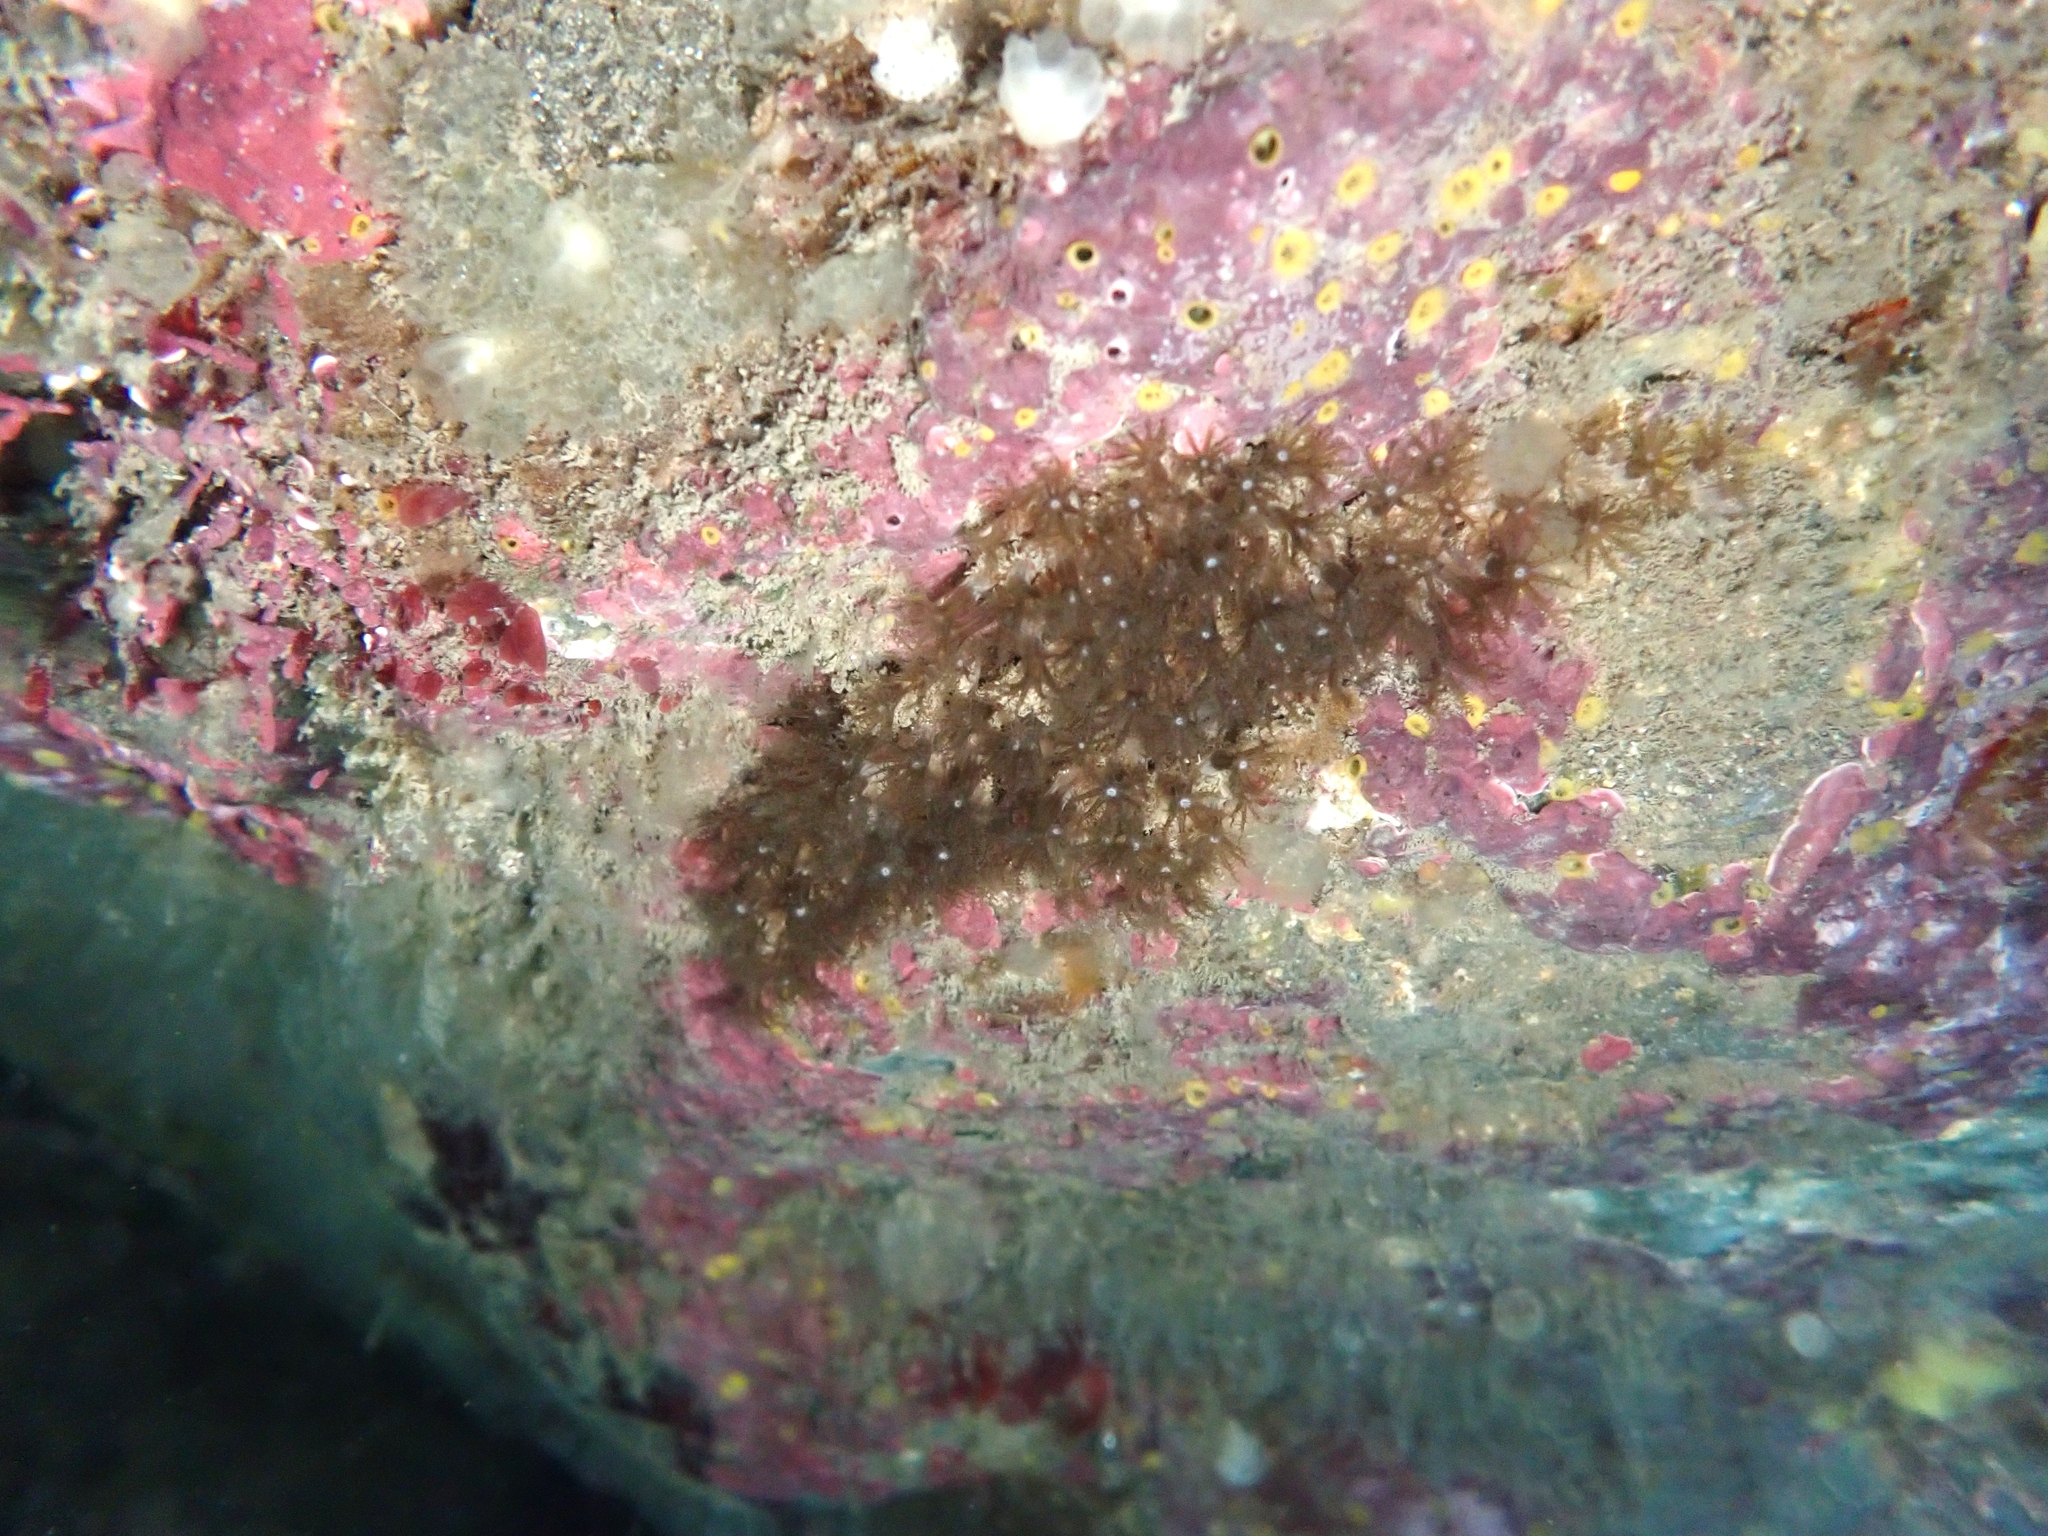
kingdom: Animalia
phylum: Cnidaria
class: Anthozoa
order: Malacalcyonacea
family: Clavulariidae
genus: Clavularia
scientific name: Clavularia novaezealandiae
